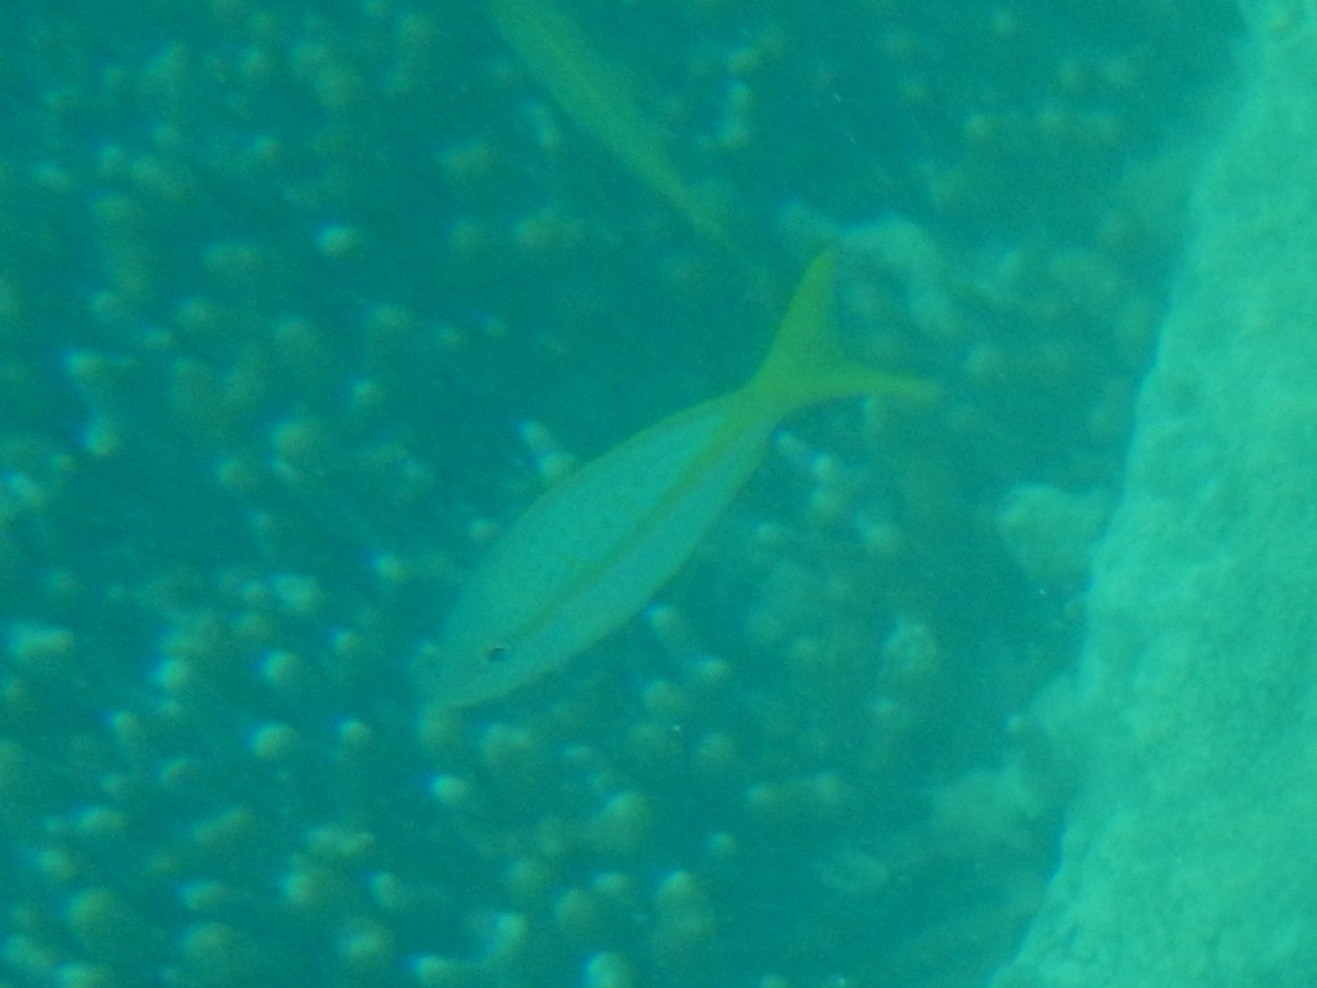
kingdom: Animalia
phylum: Chordata
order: Perciformes
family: Lutjanidae
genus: Ocyurus
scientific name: Ocyurus chrysurus
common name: Yellowtail snapper
